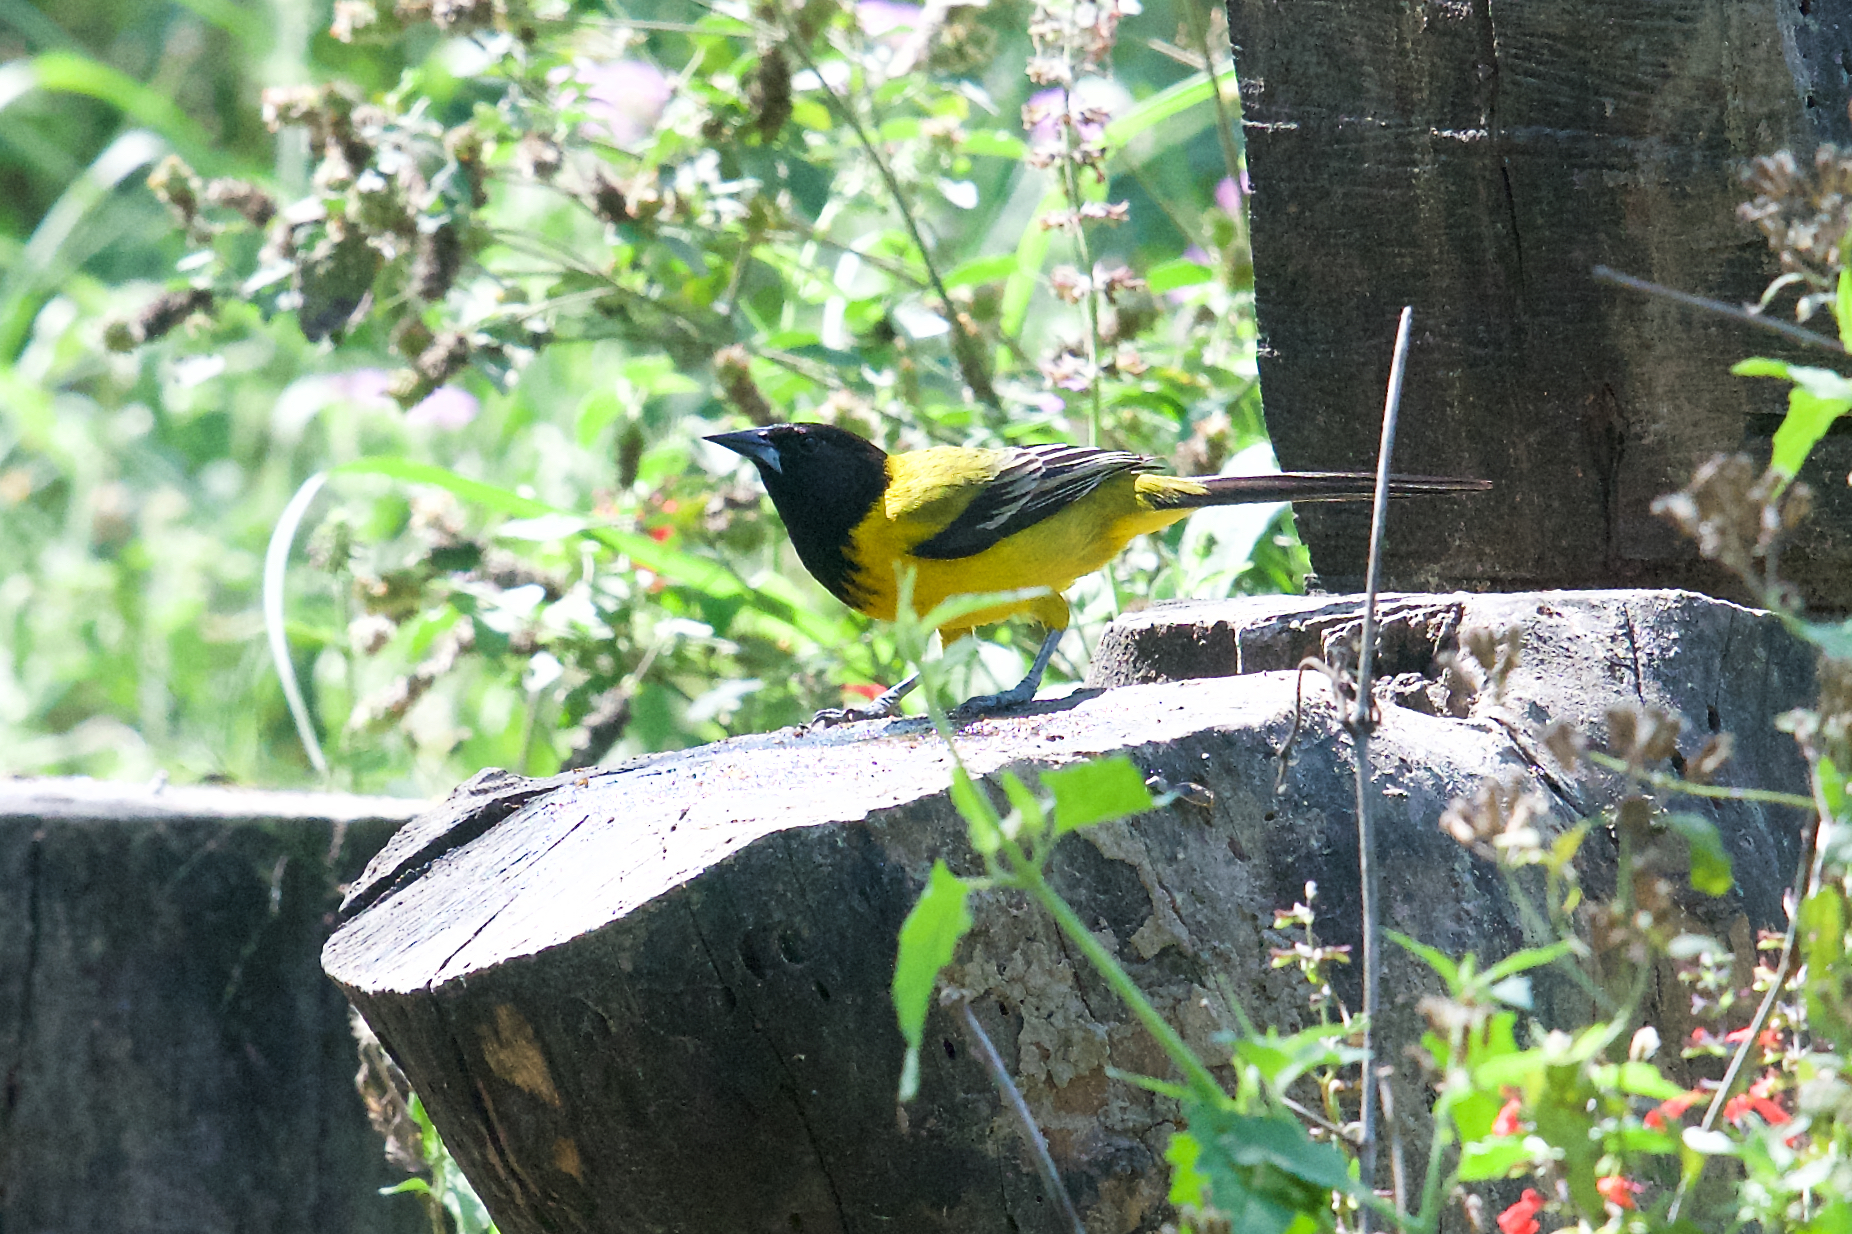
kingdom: Animalia
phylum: Chordata
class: Aves
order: Passeriformes
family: Icteridae
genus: Icterus
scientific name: Icterus graduacauda
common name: Audubon's oriole
